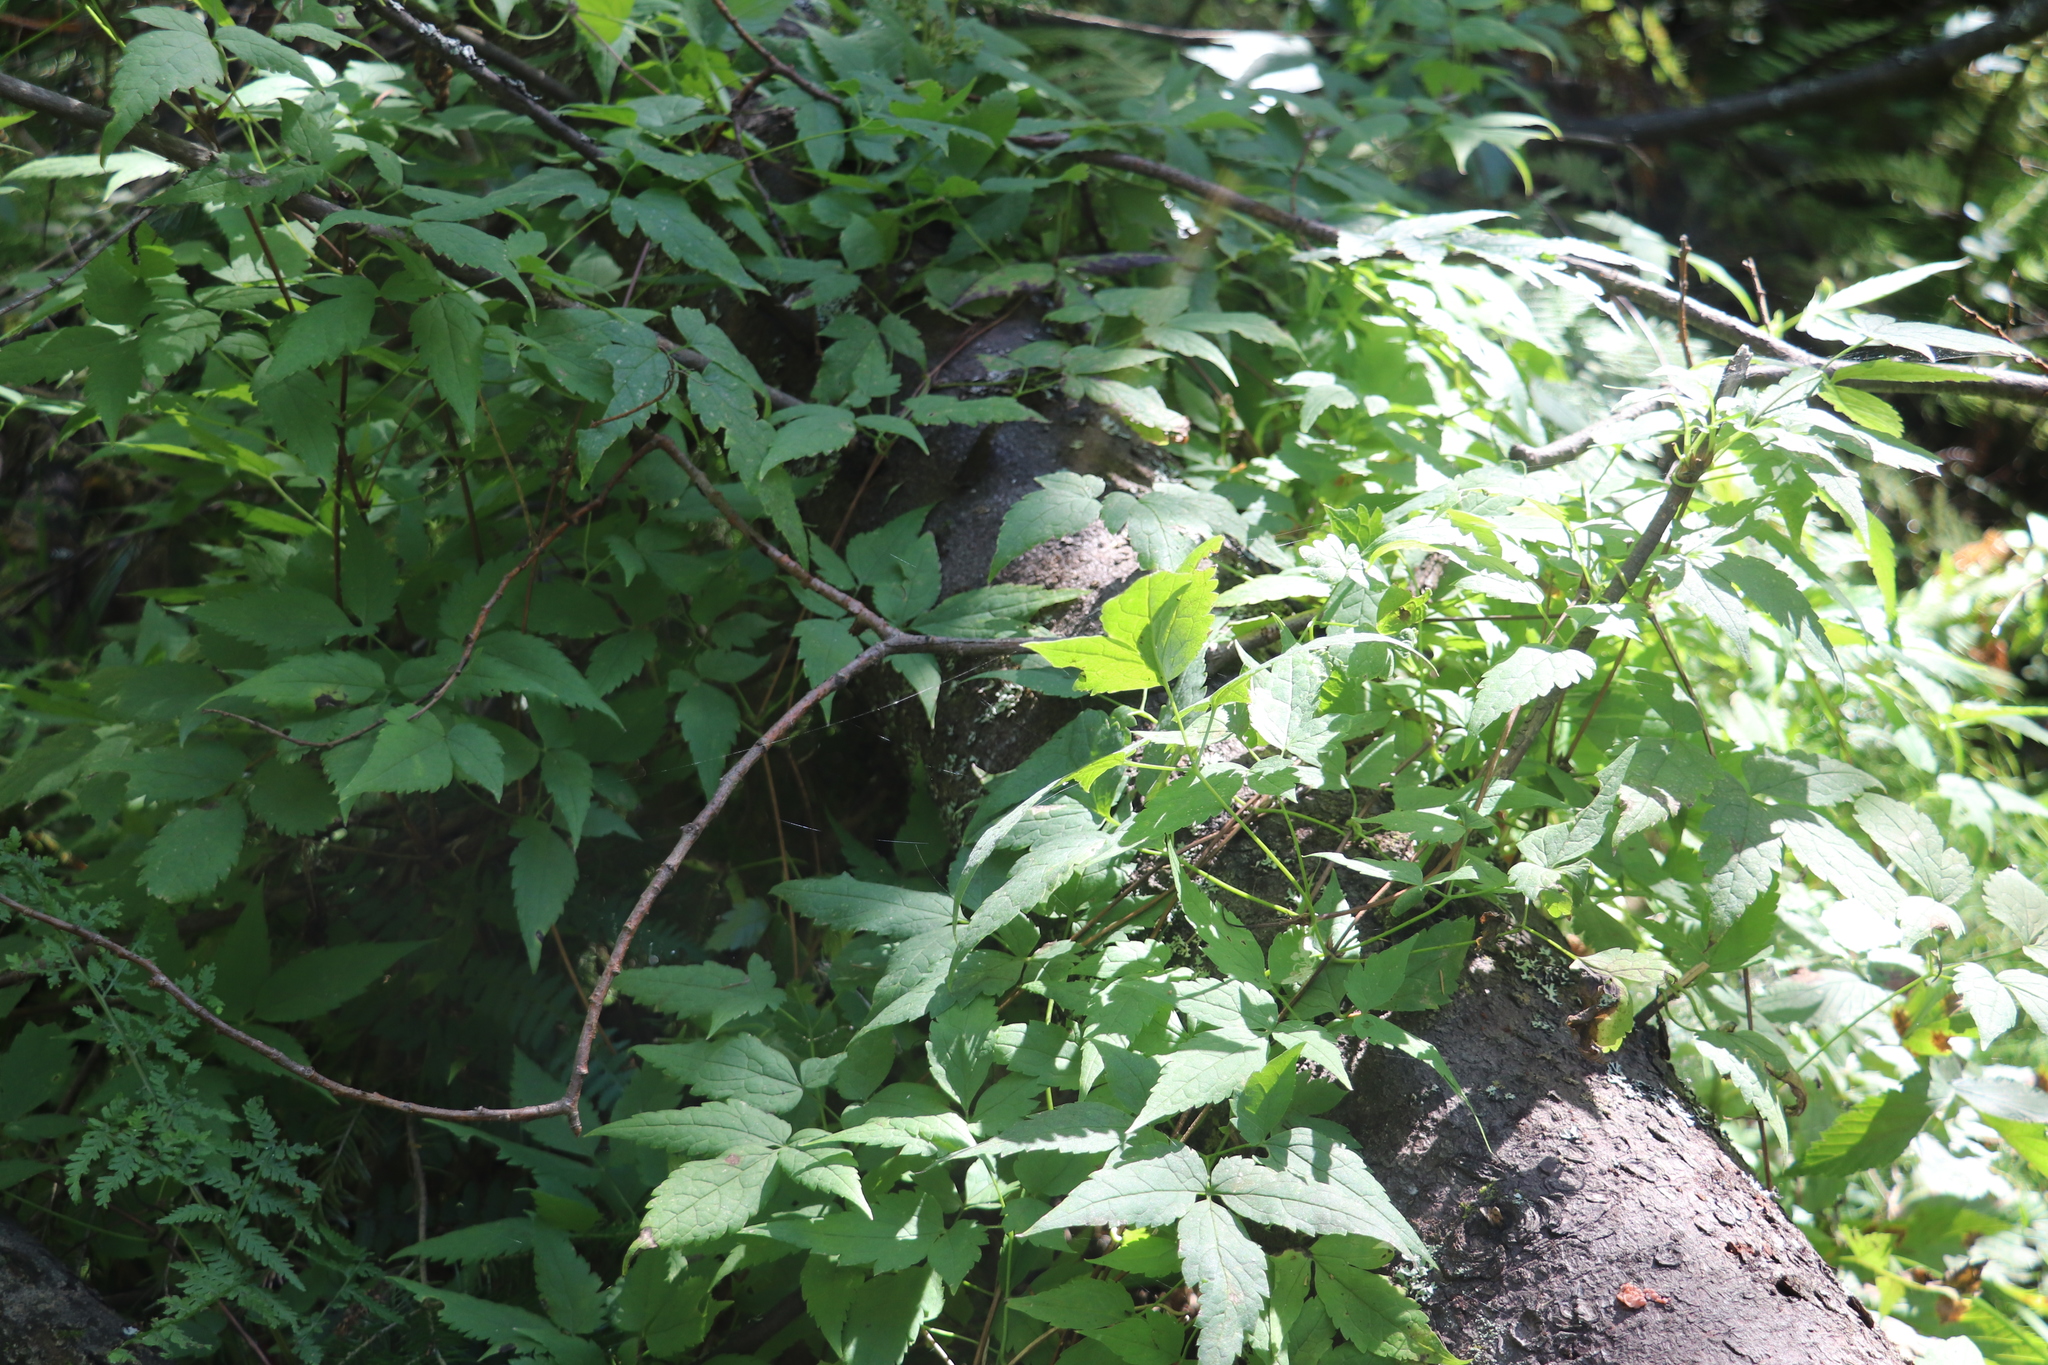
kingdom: Plantae
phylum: Tracheophyta
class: Magnoliopsida
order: Ranunculales
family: Ranunculaceae
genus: Clematis
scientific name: Clematis sibirica
